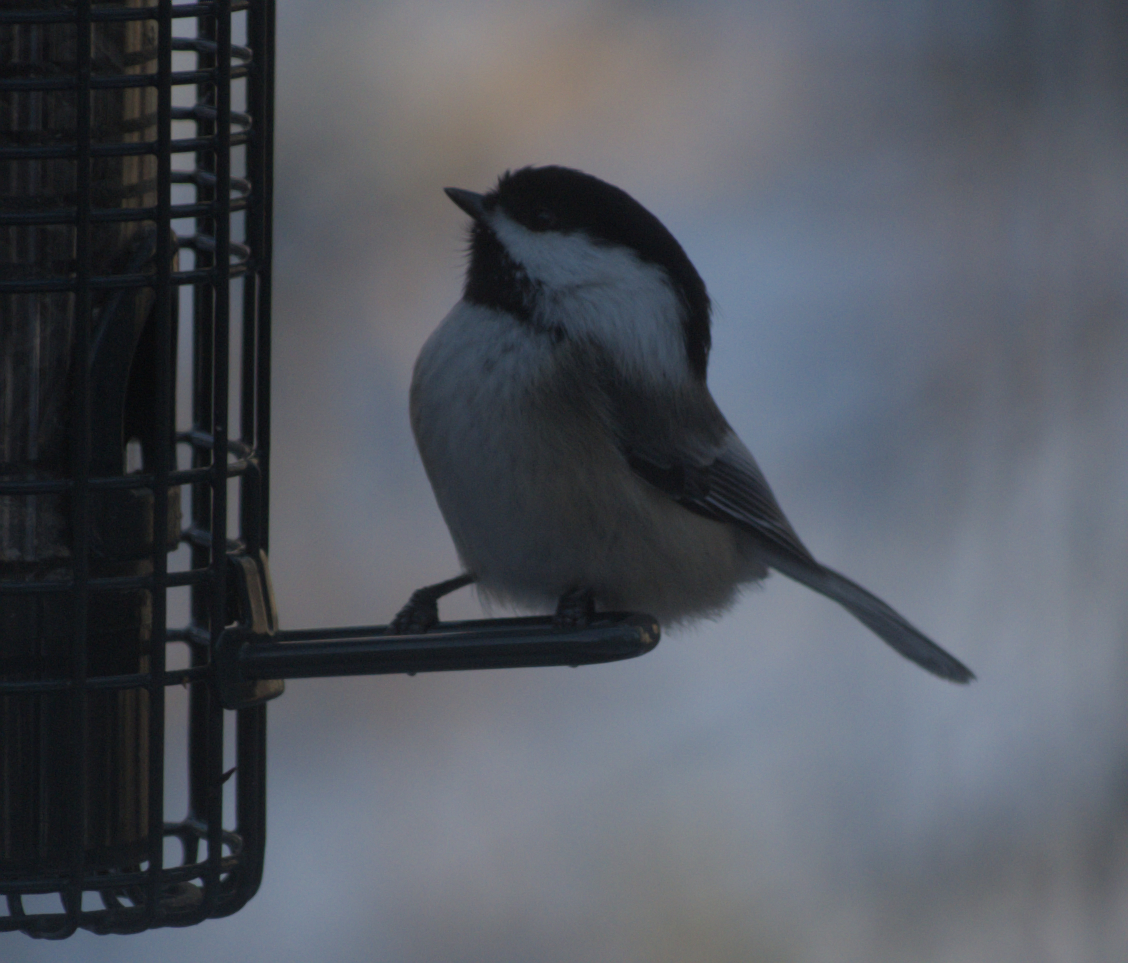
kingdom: Animalia
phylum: Chordata
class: Aves
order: Passeriformes
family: Paridae
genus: Poecile
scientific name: Poecile atricapillus
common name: Black-capped chickadee
